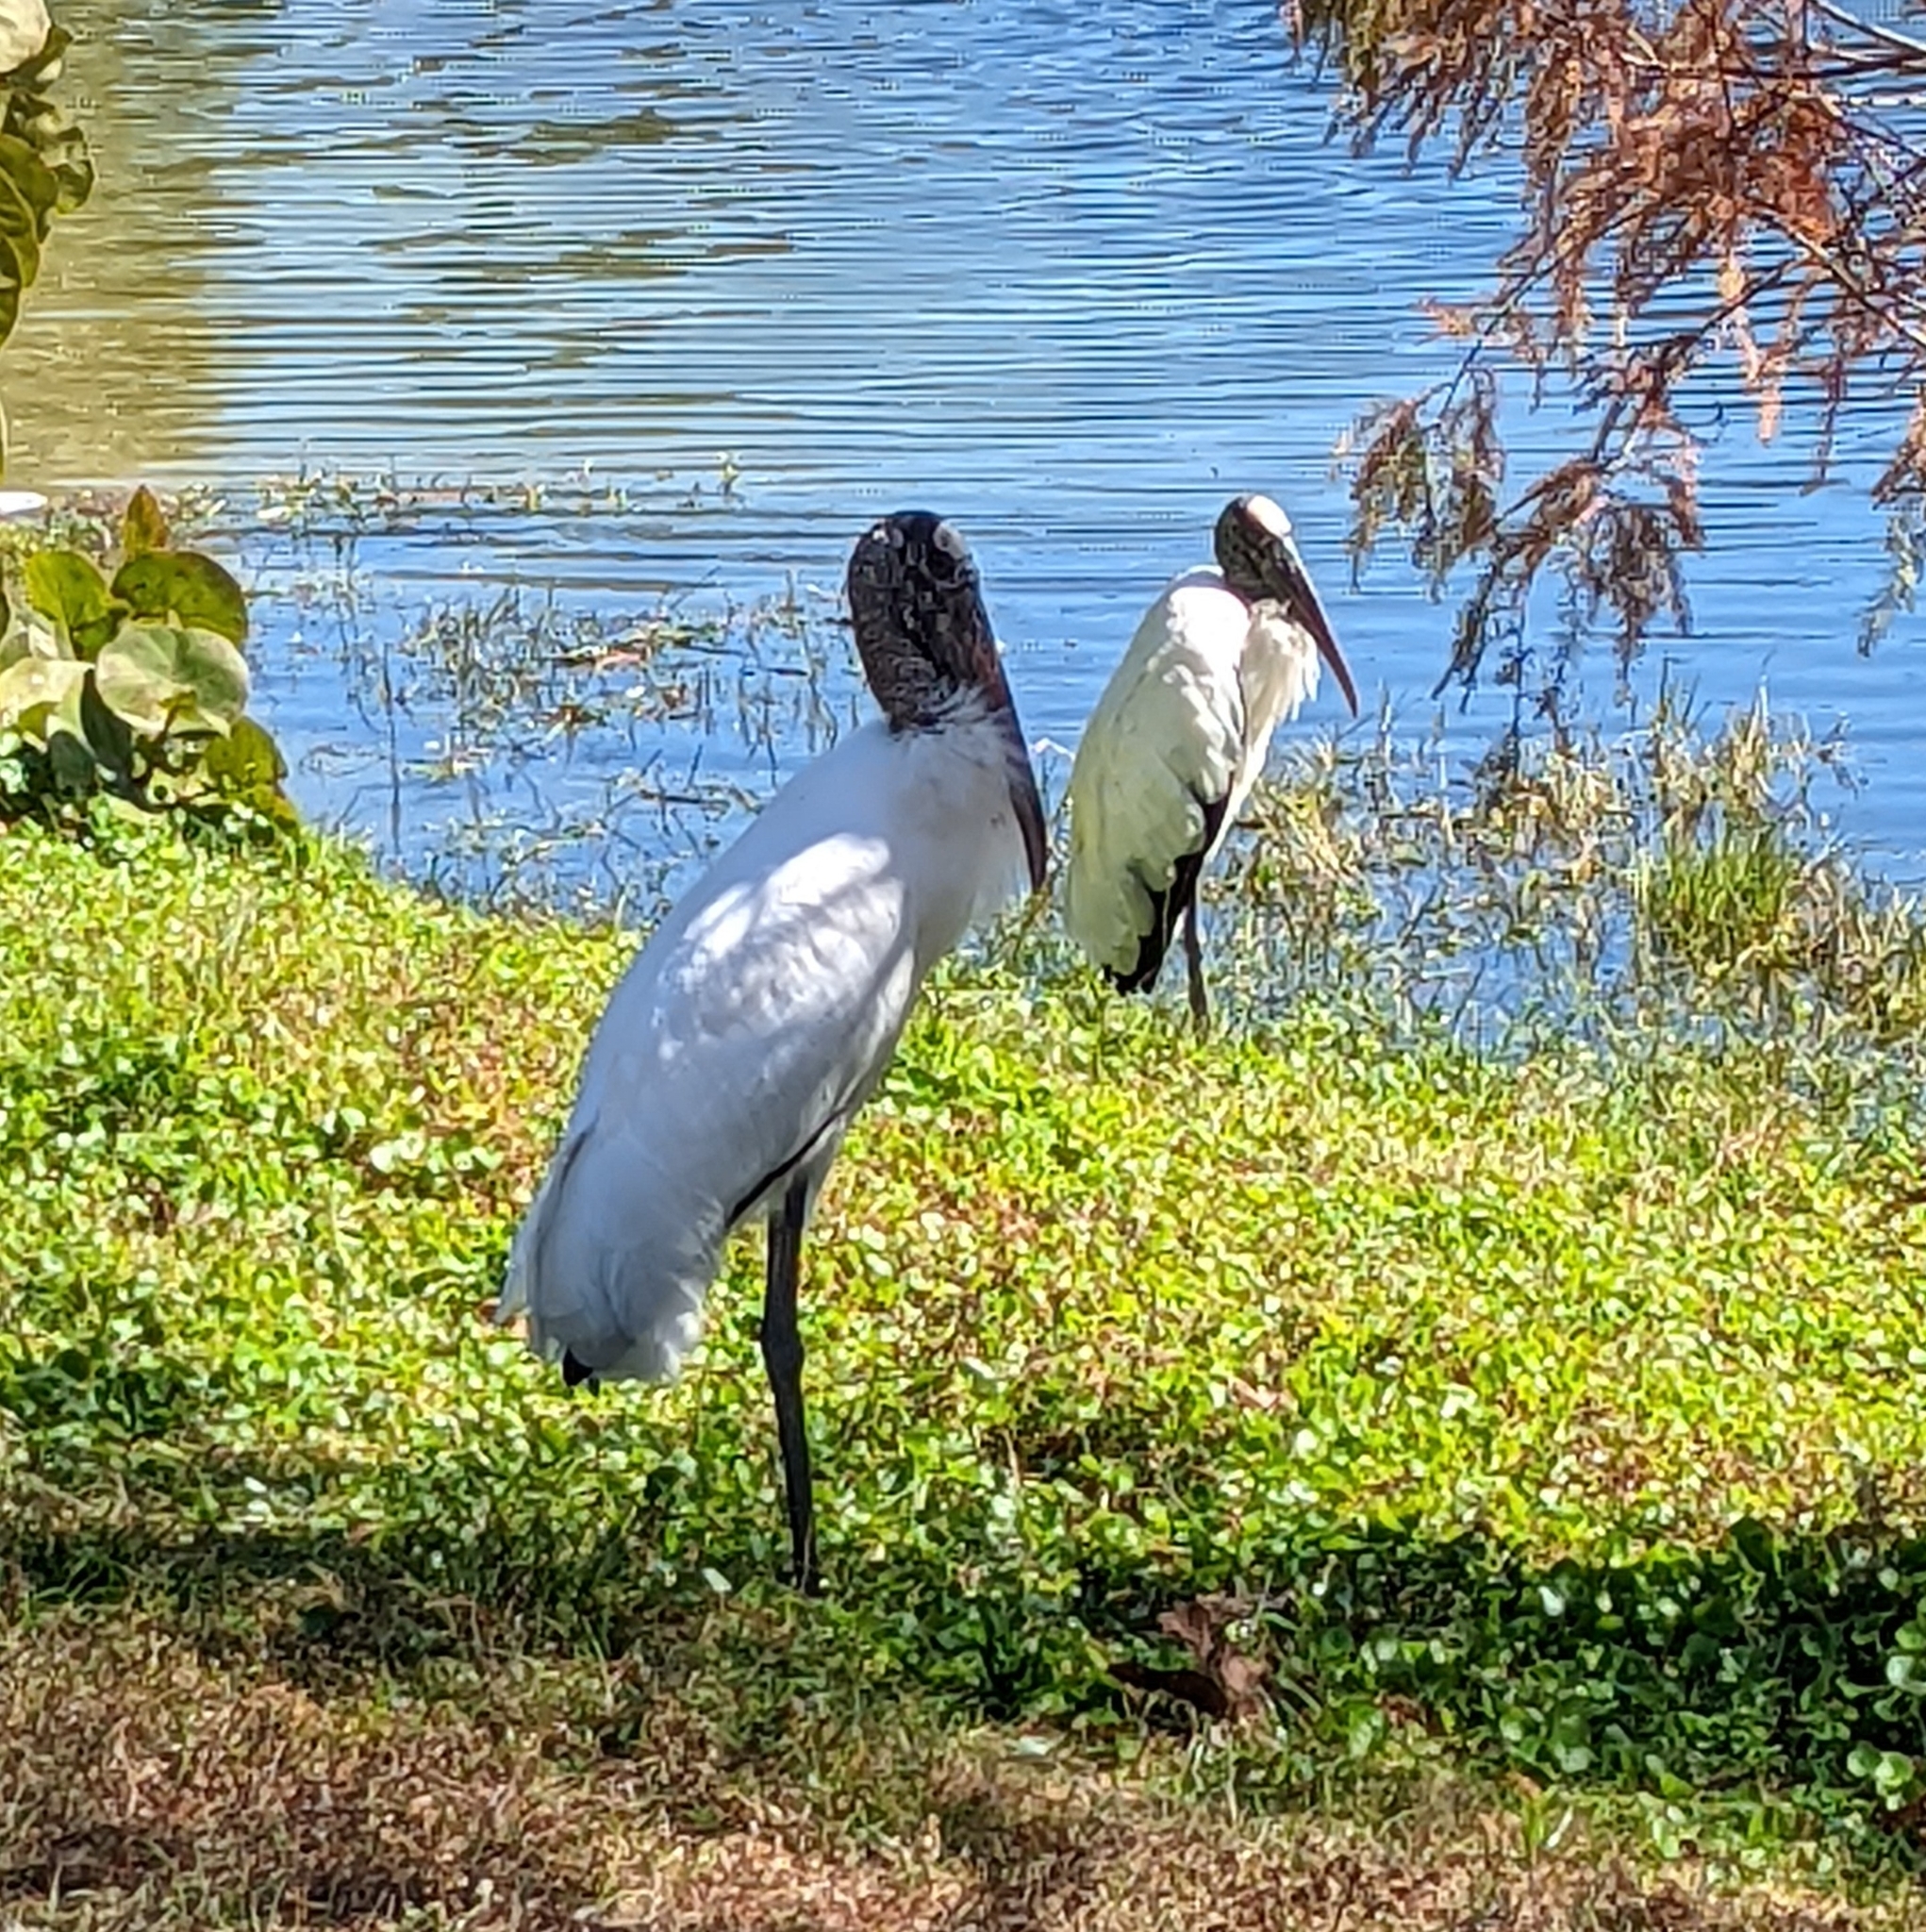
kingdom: Animalia
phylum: Chordata
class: Aves
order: Ciconiiformes
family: Ciconiidae
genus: Mycteria
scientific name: Mycteria americana
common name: Wood stork
